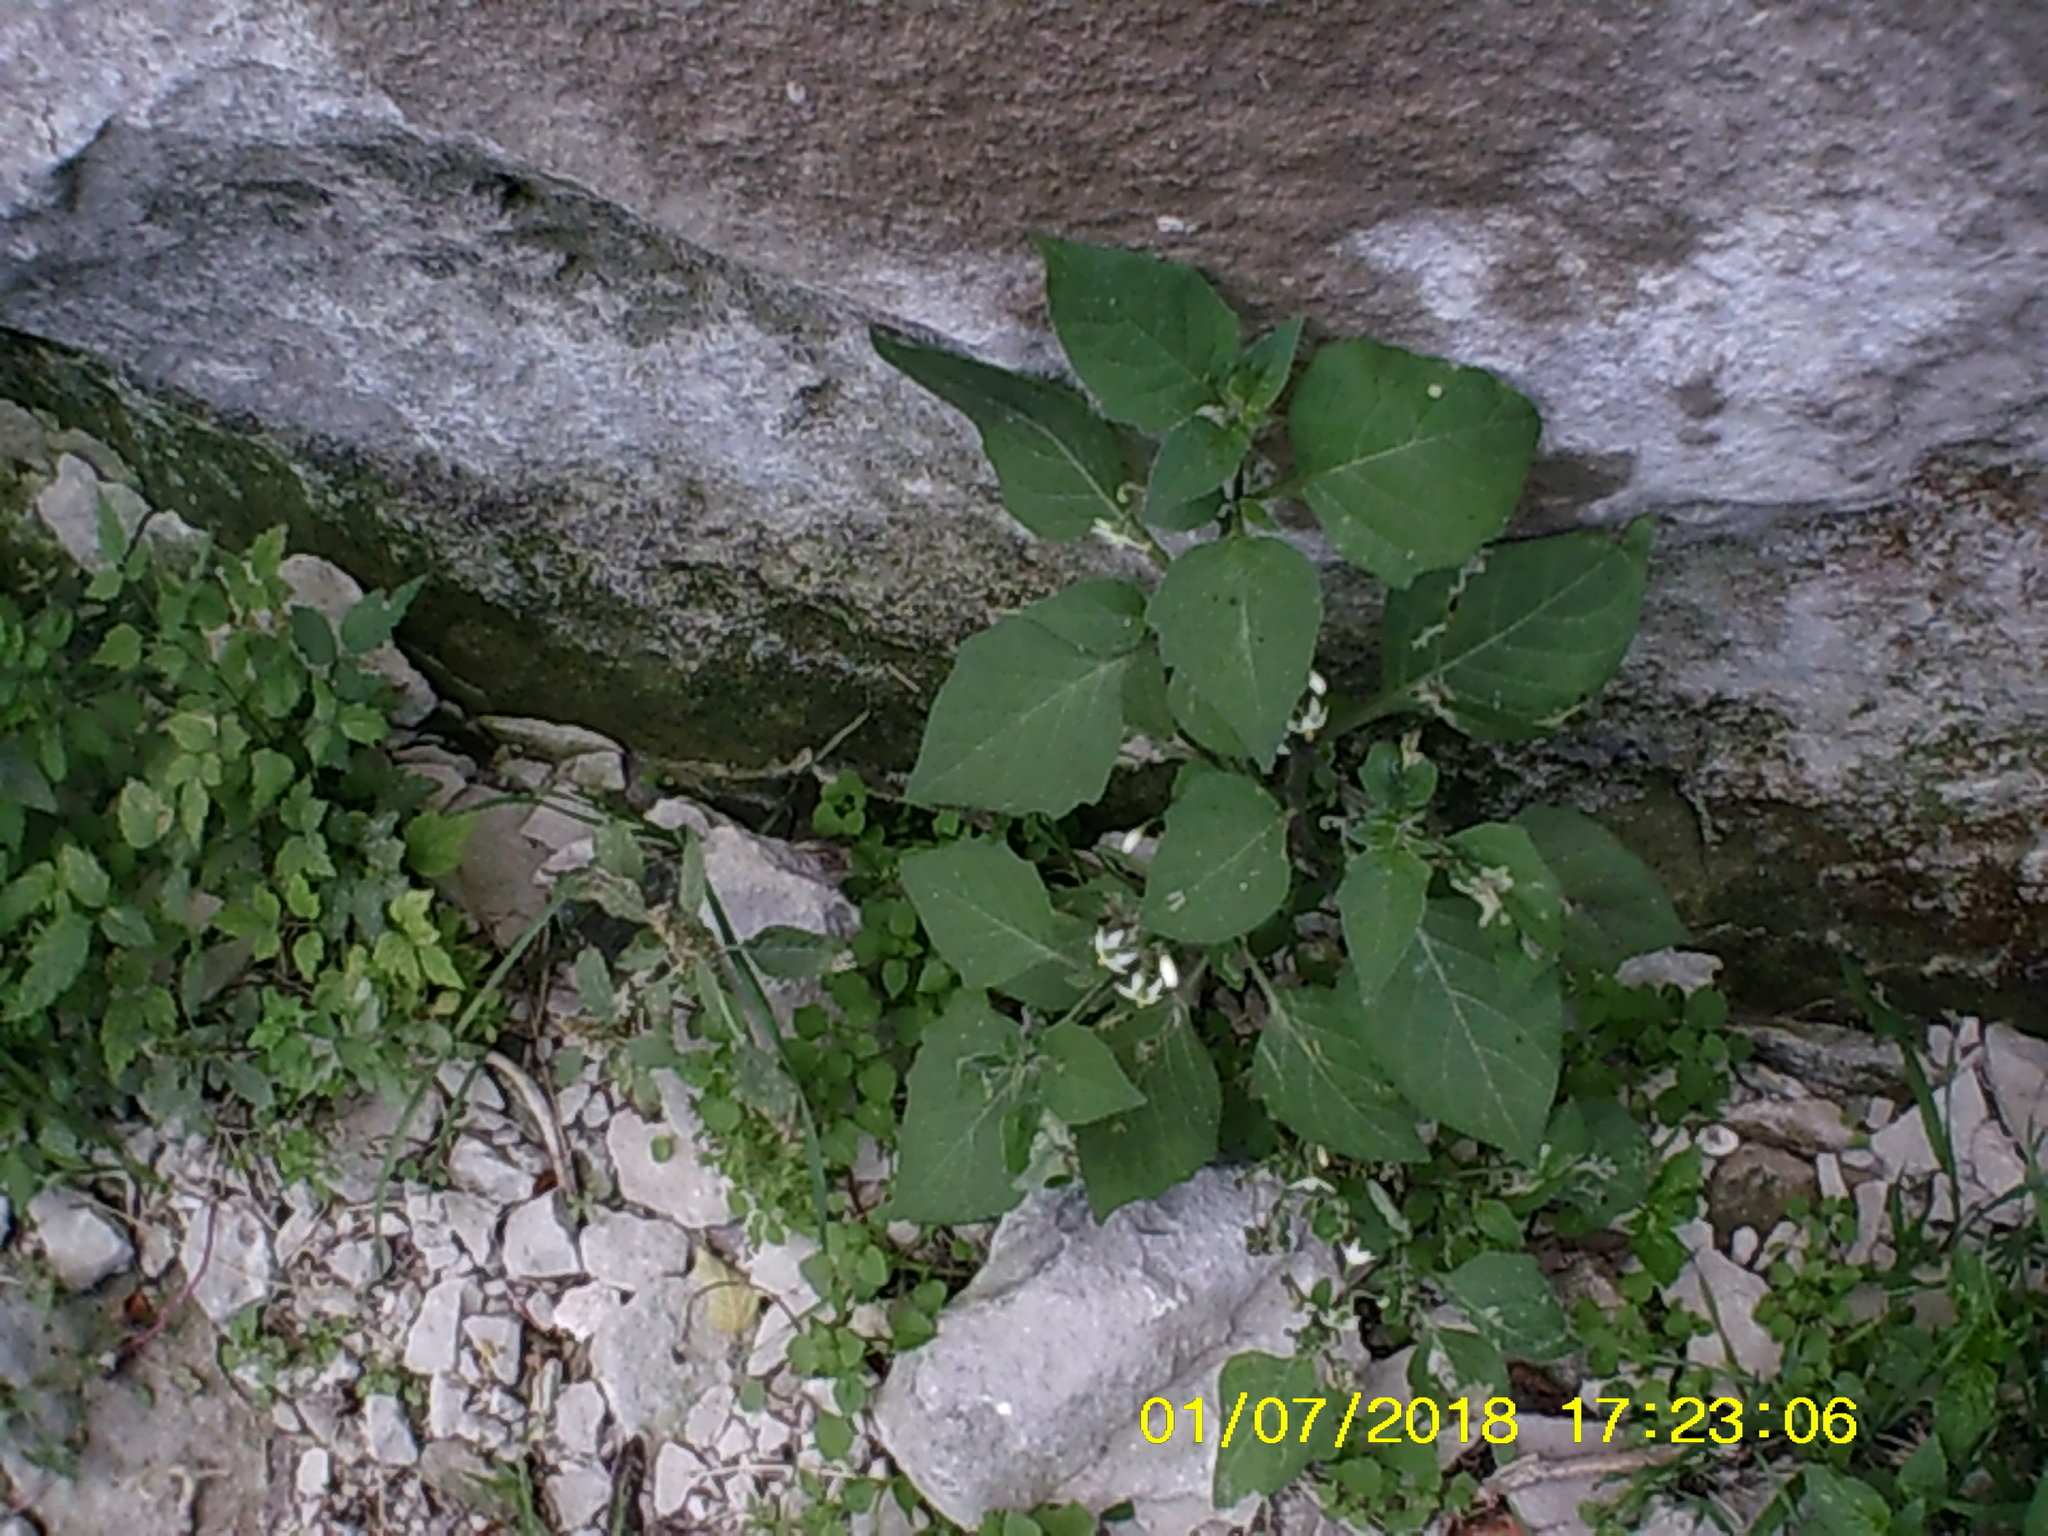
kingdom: Plantae
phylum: Tracheophyta
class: Magnoliopsida
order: Solanales
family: Solanaceae
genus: Solanum
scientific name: Solanum nigrum
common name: Black nightshade
